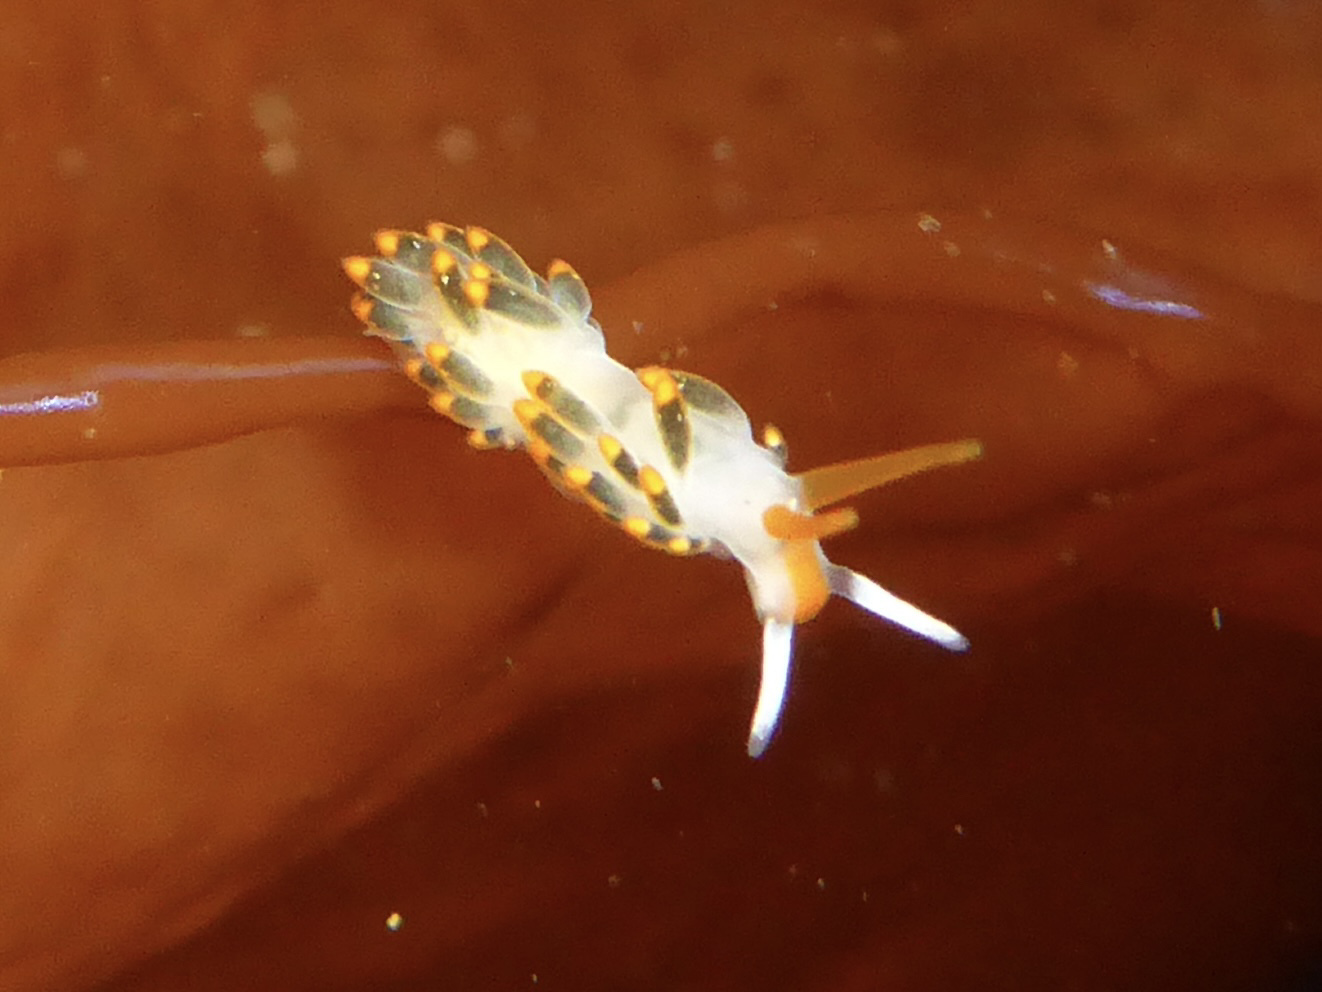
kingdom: Animalia
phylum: Mollusca
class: Gastropoda
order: Nudibranchia
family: Trinchesiidae
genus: Diaphoreolis
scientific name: Diaphoreolis lagunae
